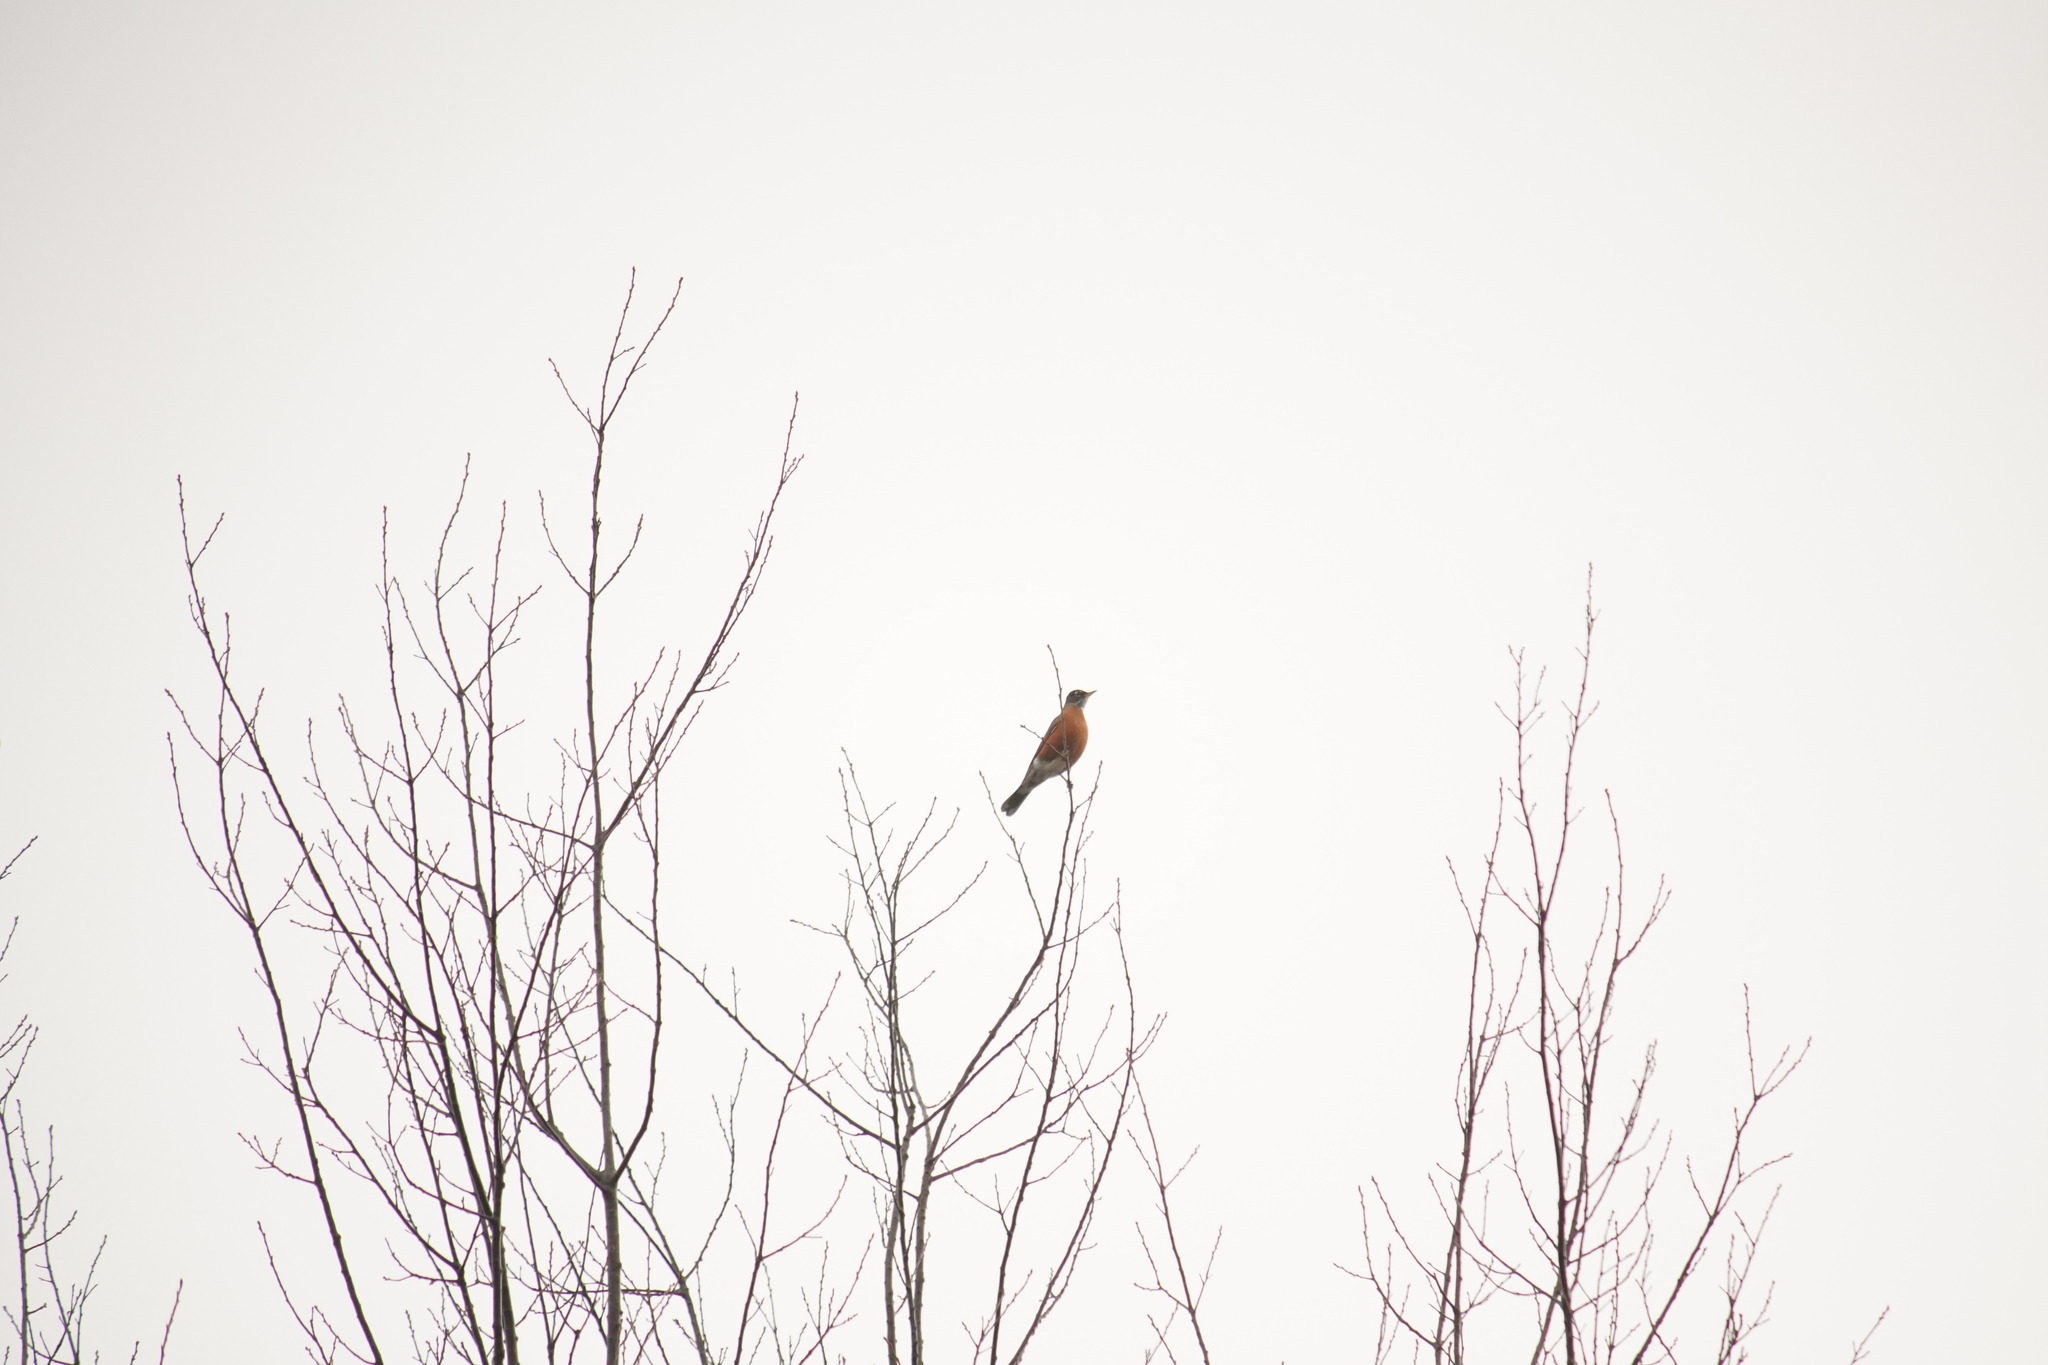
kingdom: Animalia
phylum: Chordata
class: Aves
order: Passeriformes
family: Turdidae
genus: Turdus
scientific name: Turdus migratorius
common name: American robin
